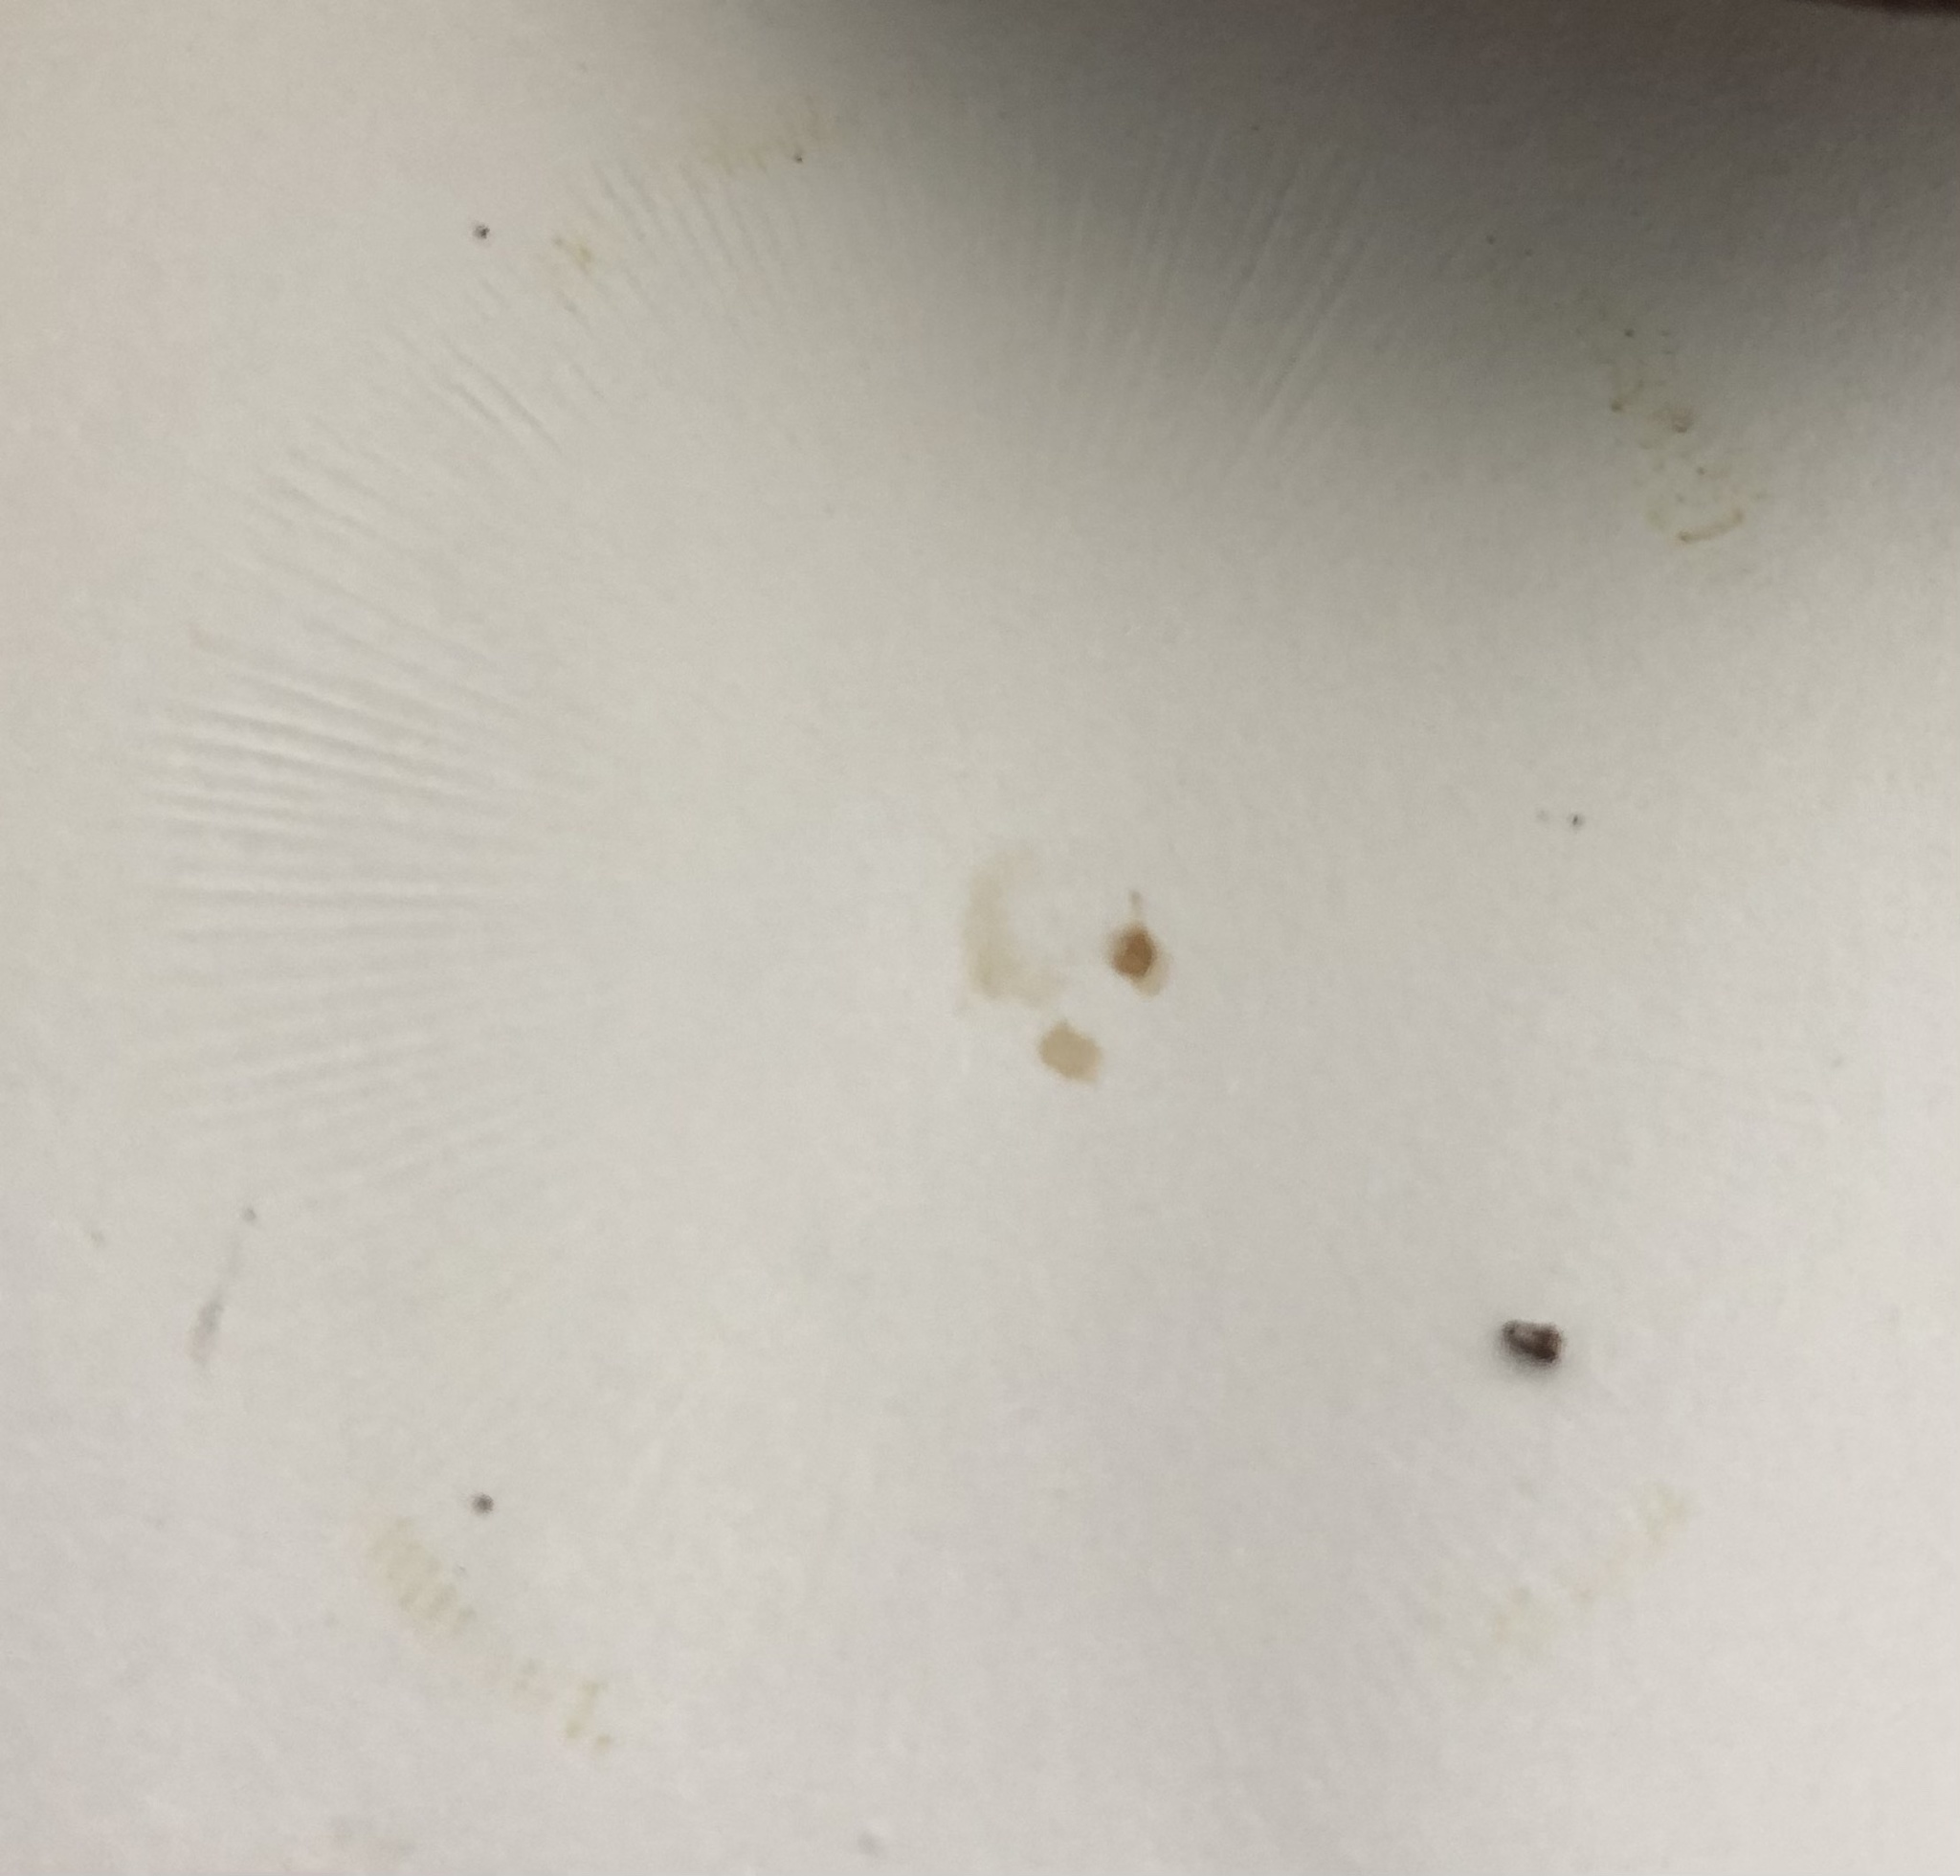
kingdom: Fungi
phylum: Basidiomycota
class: Agaricomycetes
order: Agaricales
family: Amanitaceae
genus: Amanita
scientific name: Amanita lavendula
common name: Coker's lavender staining amanita
